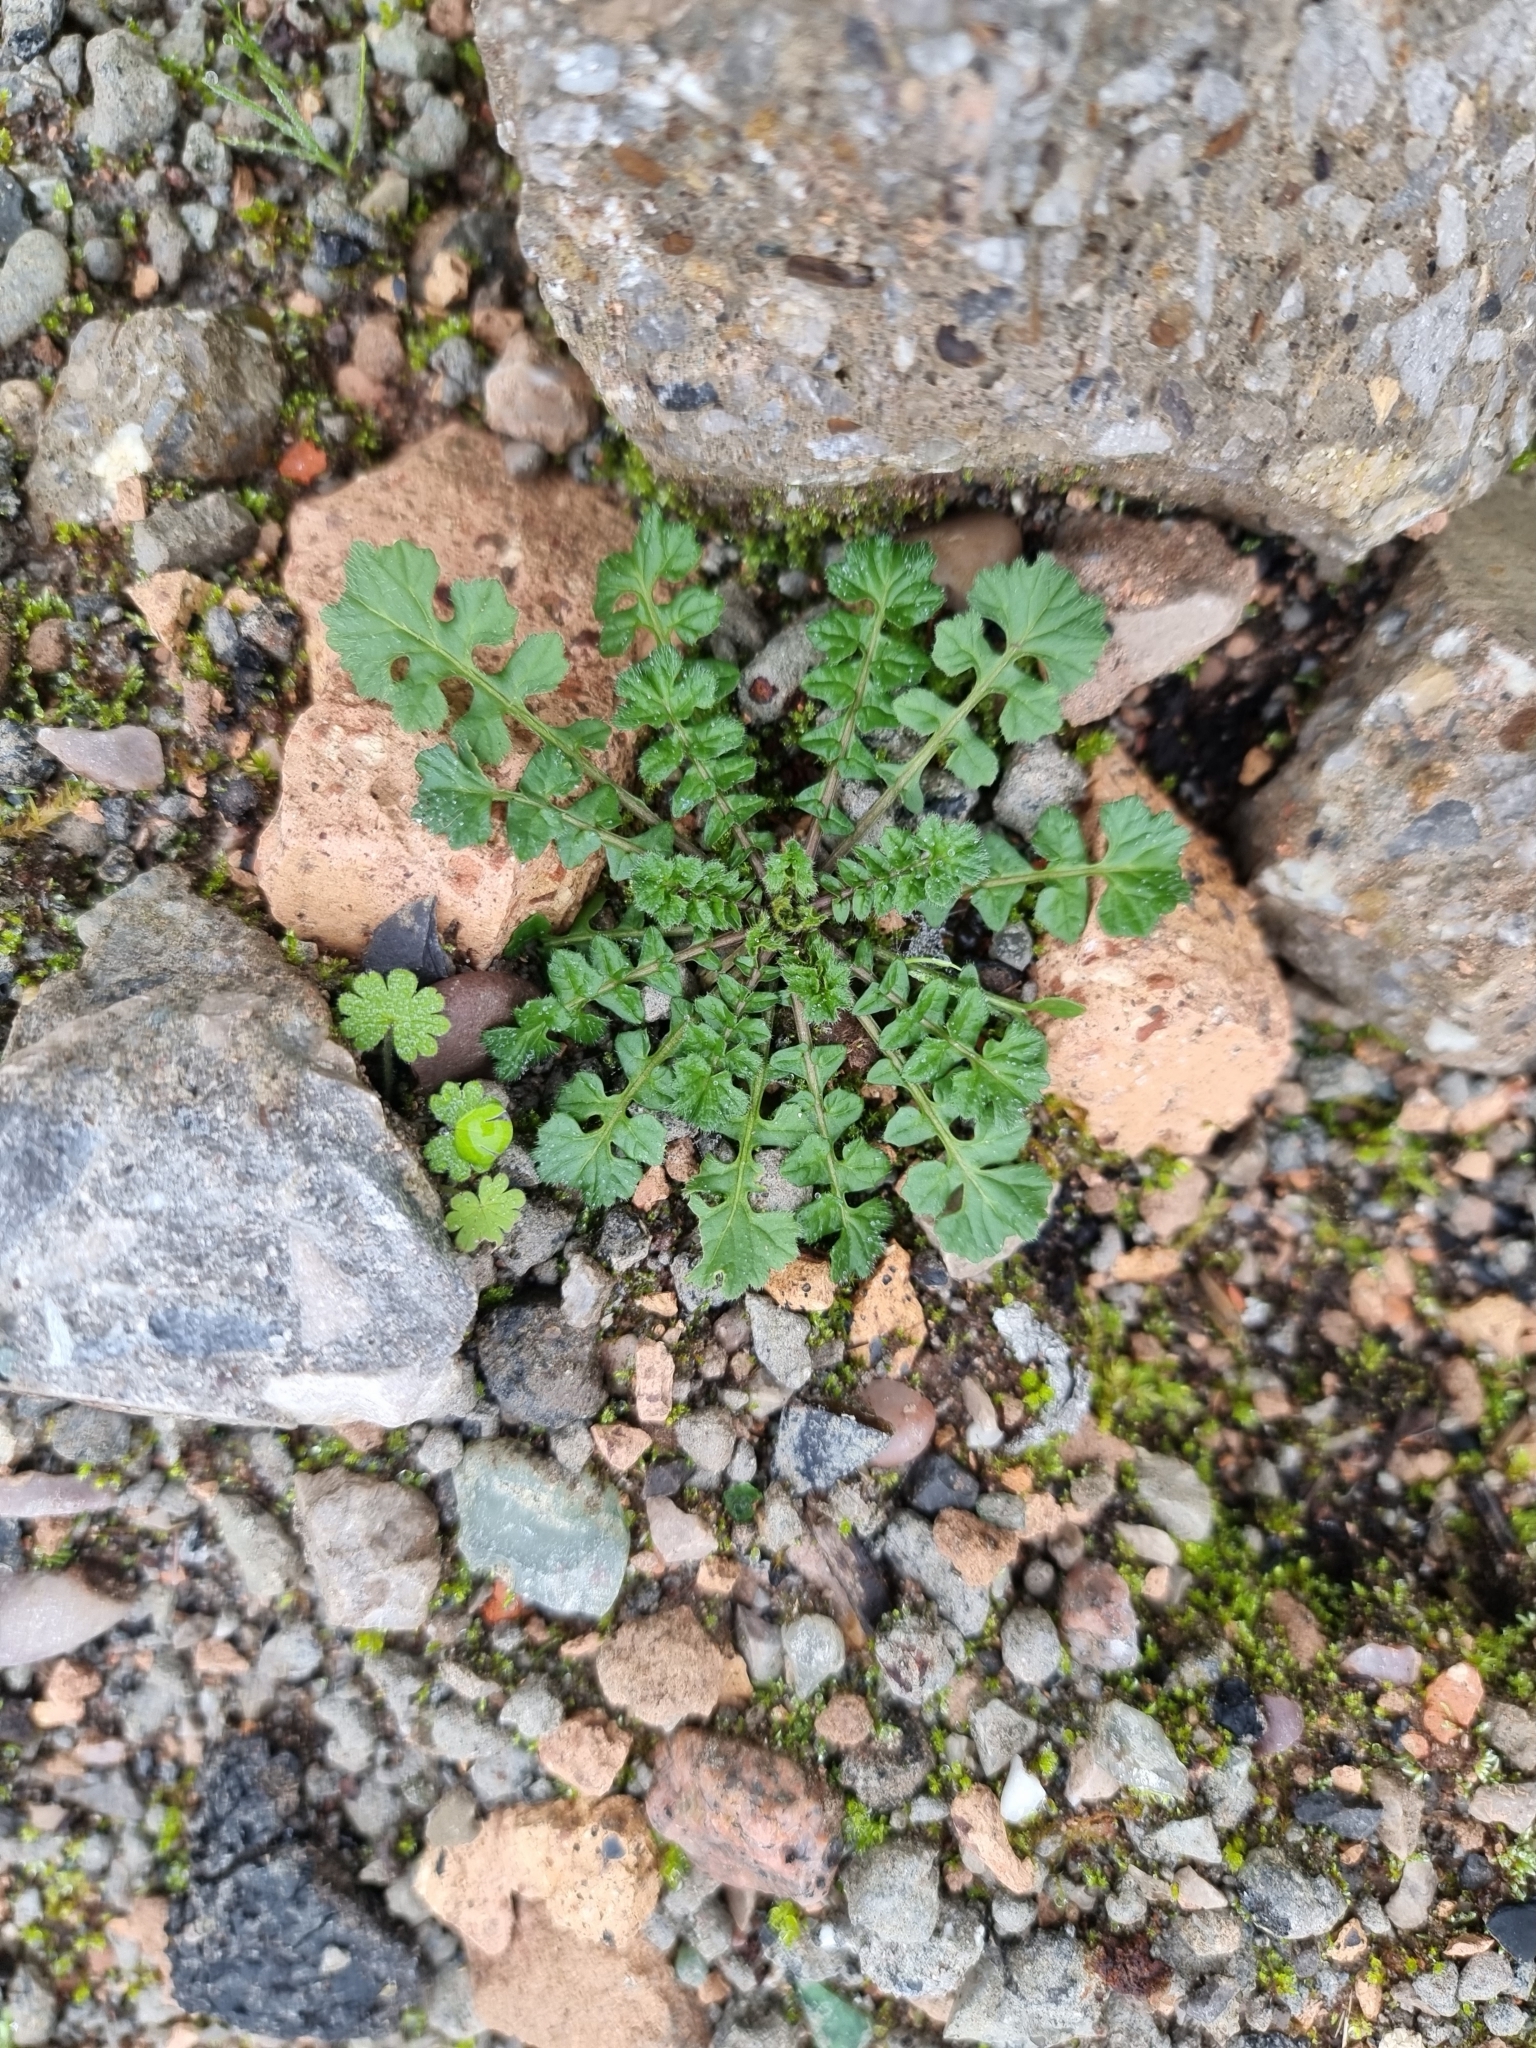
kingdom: Plantae
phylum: Tracheophyta
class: Magnoliopsida
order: Brassicales
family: Brassicaceae
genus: Cardamine
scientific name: Cardamine flexuosa
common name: Woodland bittercress
